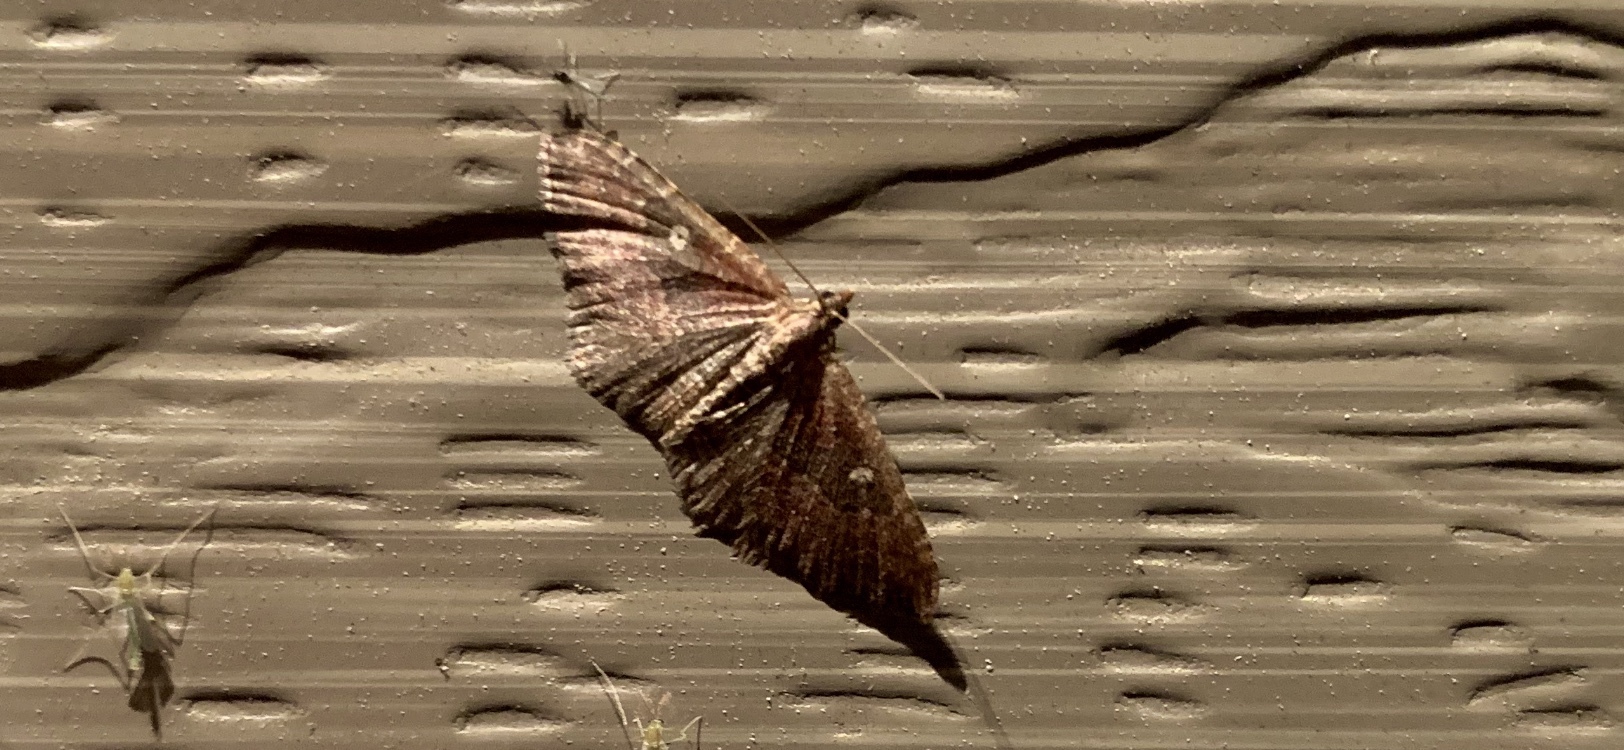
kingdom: Animalia
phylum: Arthropoda
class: Insecta
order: Lepidoptera
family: Geometridae
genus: Orthonama
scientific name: Orthonama obstipata
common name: The gem
